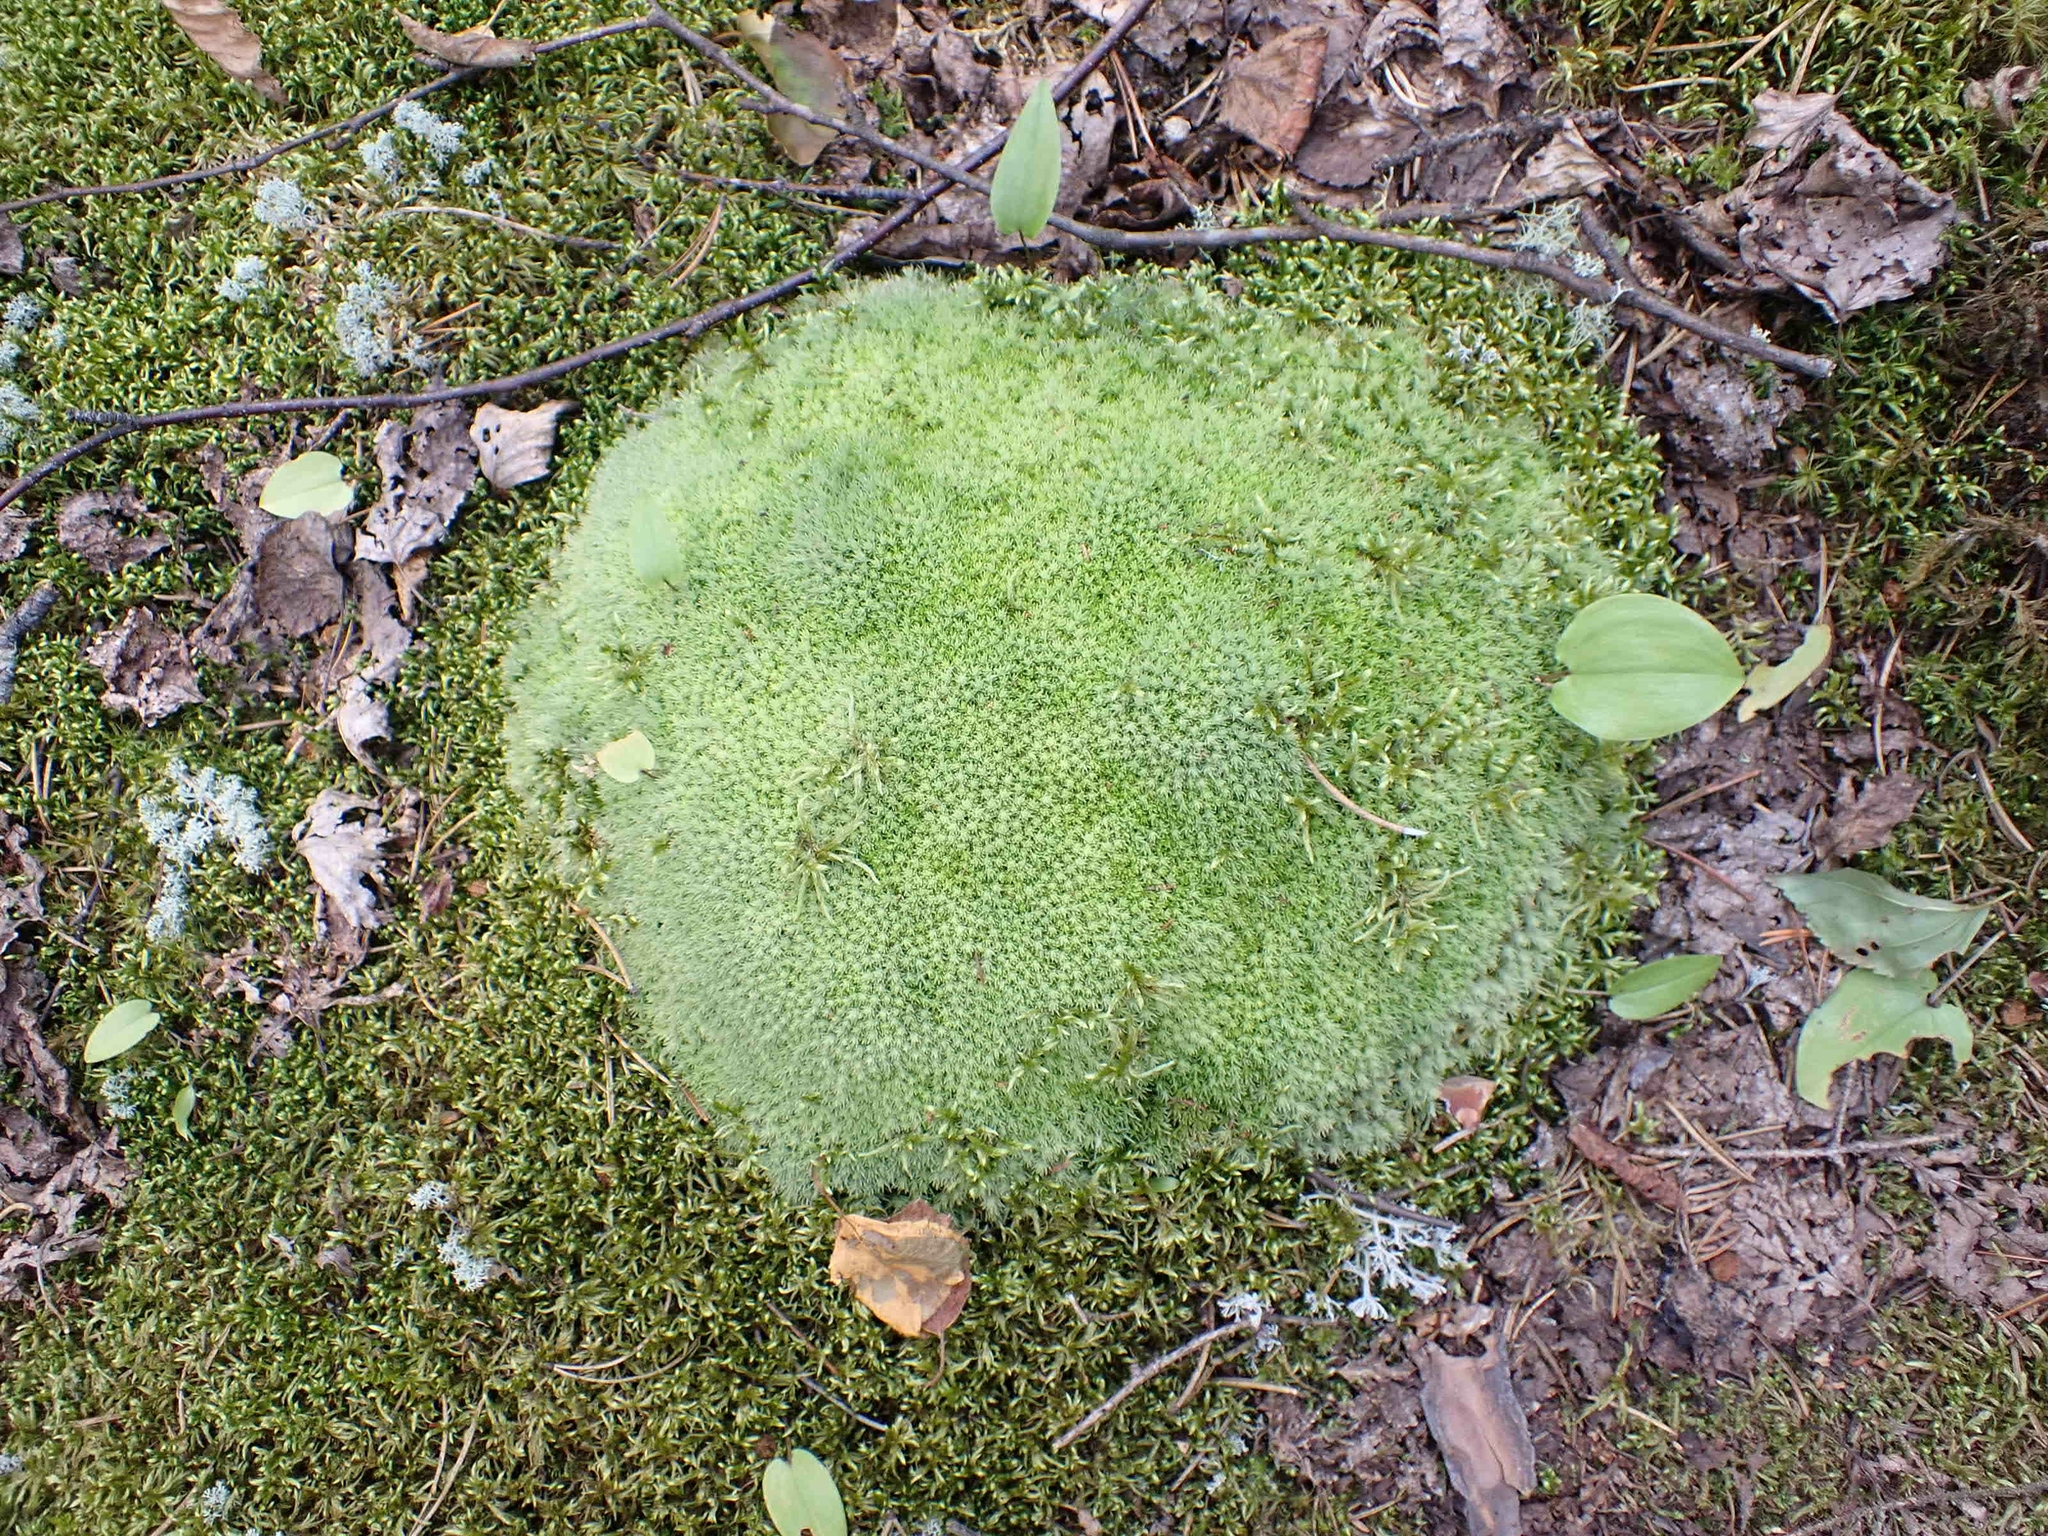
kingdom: Plantae
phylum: Bryophyta
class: Bryopsida
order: Dicranales
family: Leucobryaceae
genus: Leucobryum
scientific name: Leucobryum glaucum
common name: Large white-moss
